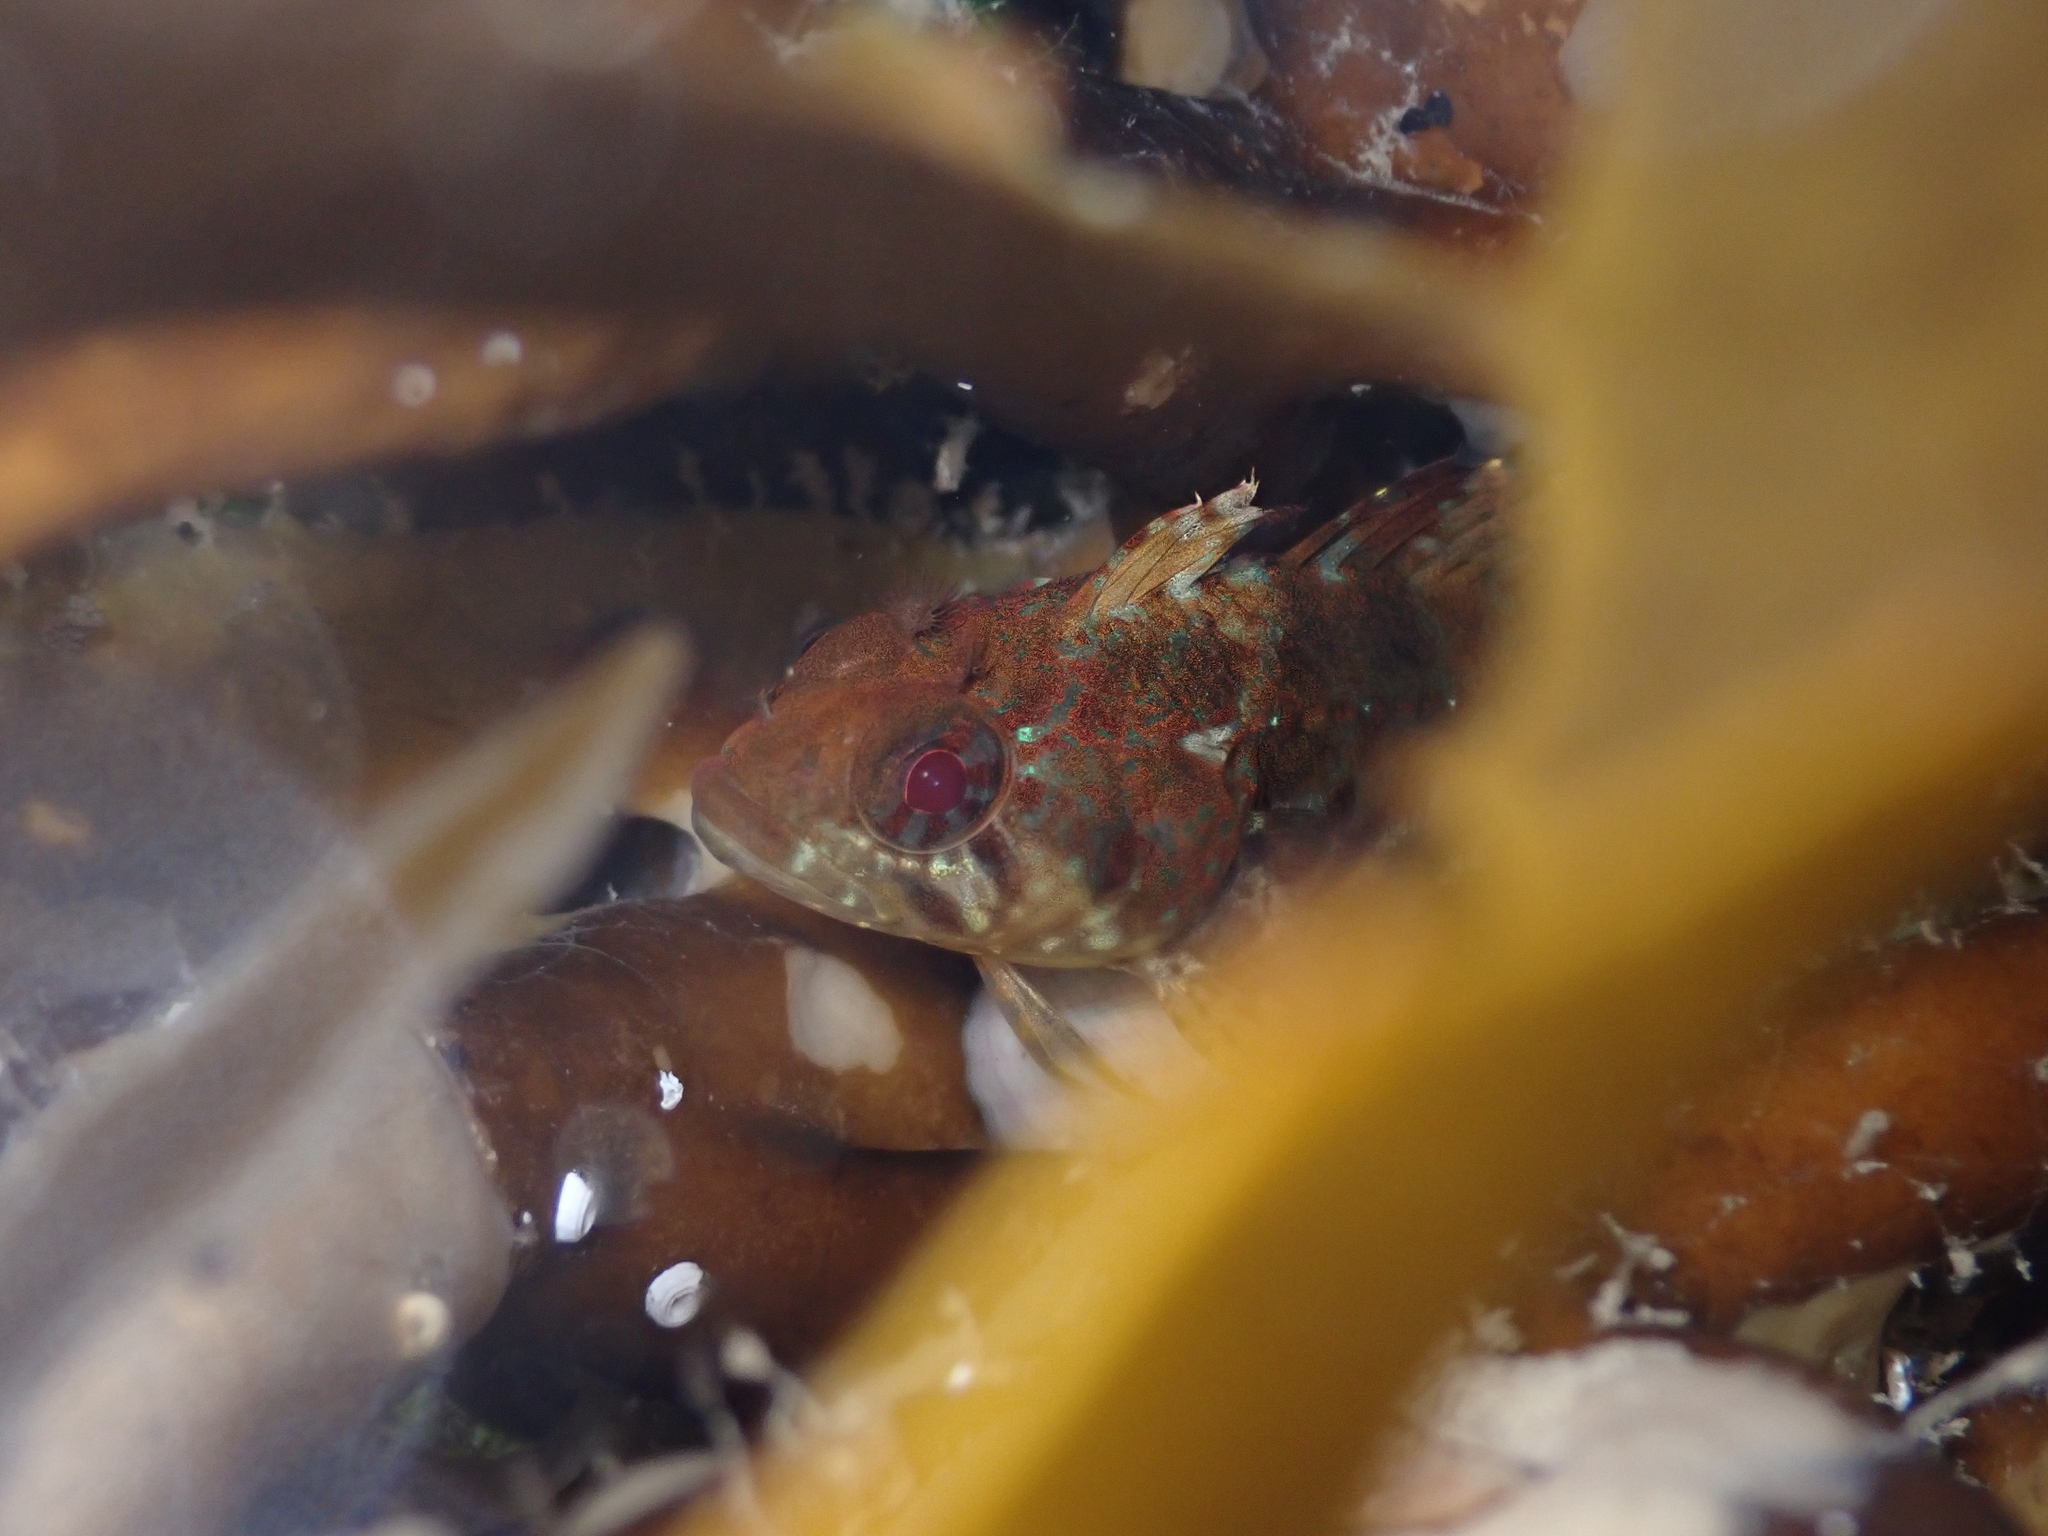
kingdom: Animalia
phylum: Chordata
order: Perciformes
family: Tripterygiidae
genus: Gilloblennius
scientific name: Gilloblennius abditus
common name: Obscure triplefin
